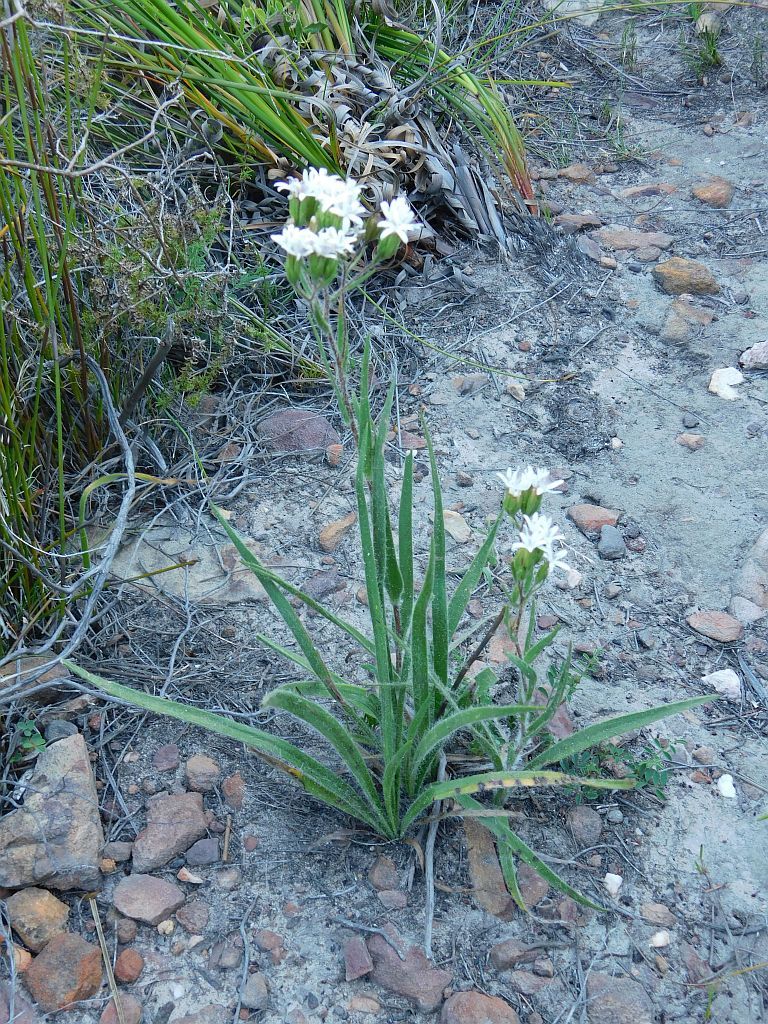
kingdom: Plantae
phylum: Tracheophyta
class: Magnoliopsida
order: Asterales
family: Asteraceae
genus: Corymbium
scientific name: Corymbium villosum
